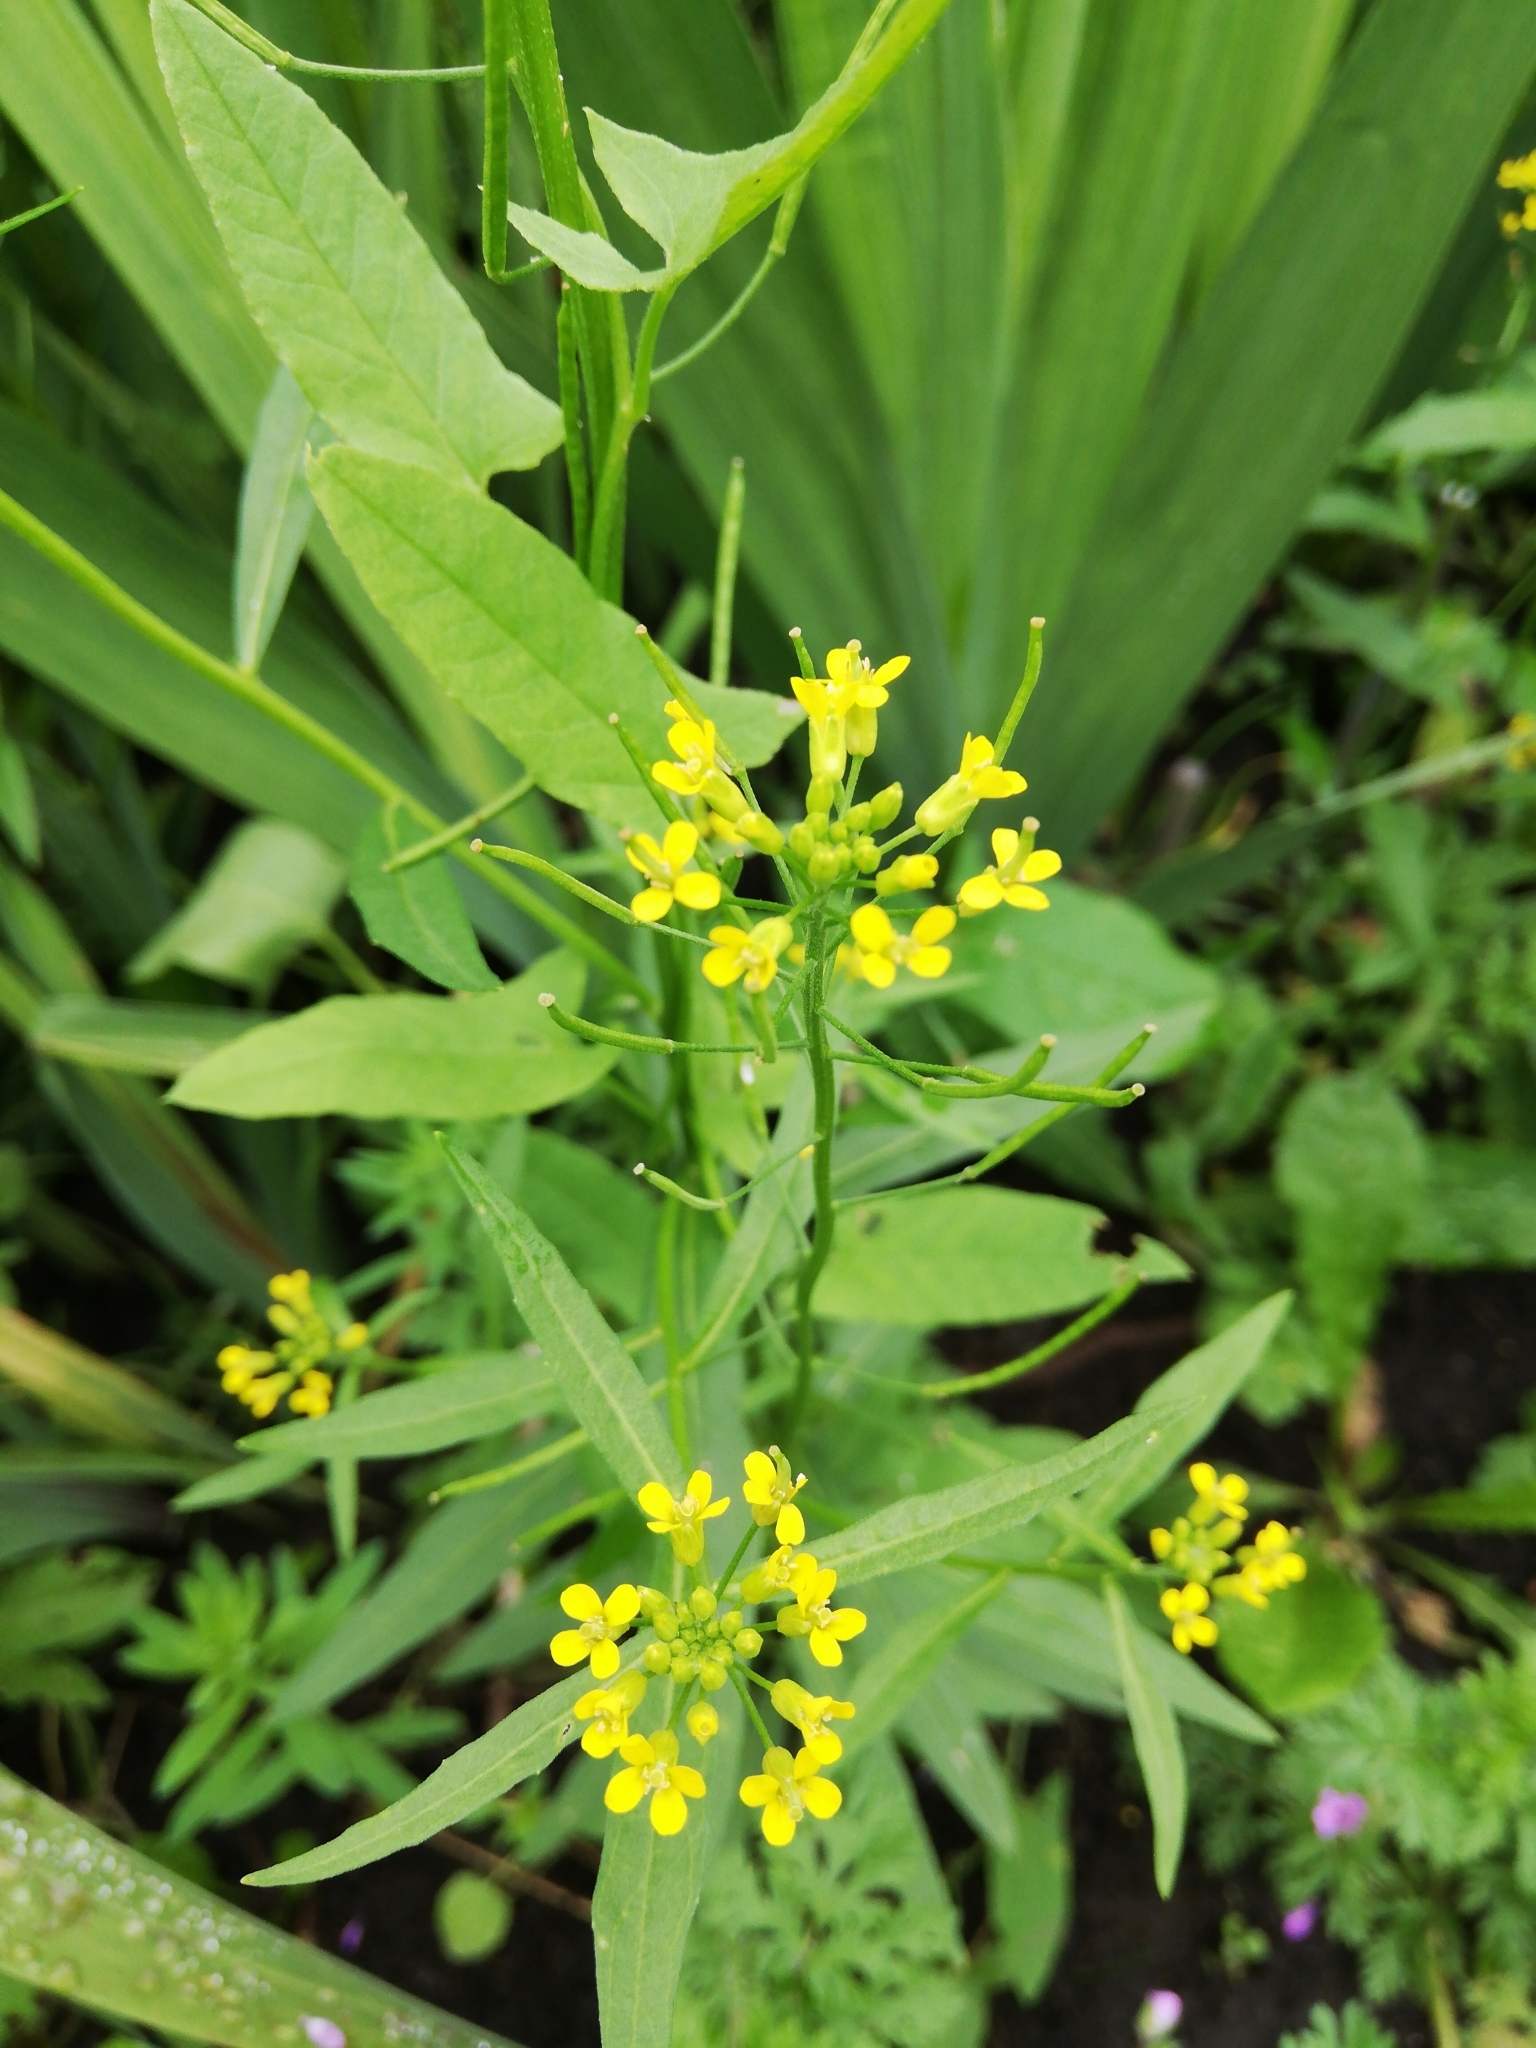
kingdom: Plantae
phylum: Tracheophyta
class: Magnoliopsida
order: Brassicales
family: Brassicaceae
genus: Erysimum
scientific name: Erysimum cheiranthoides
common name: Treacle mustard
